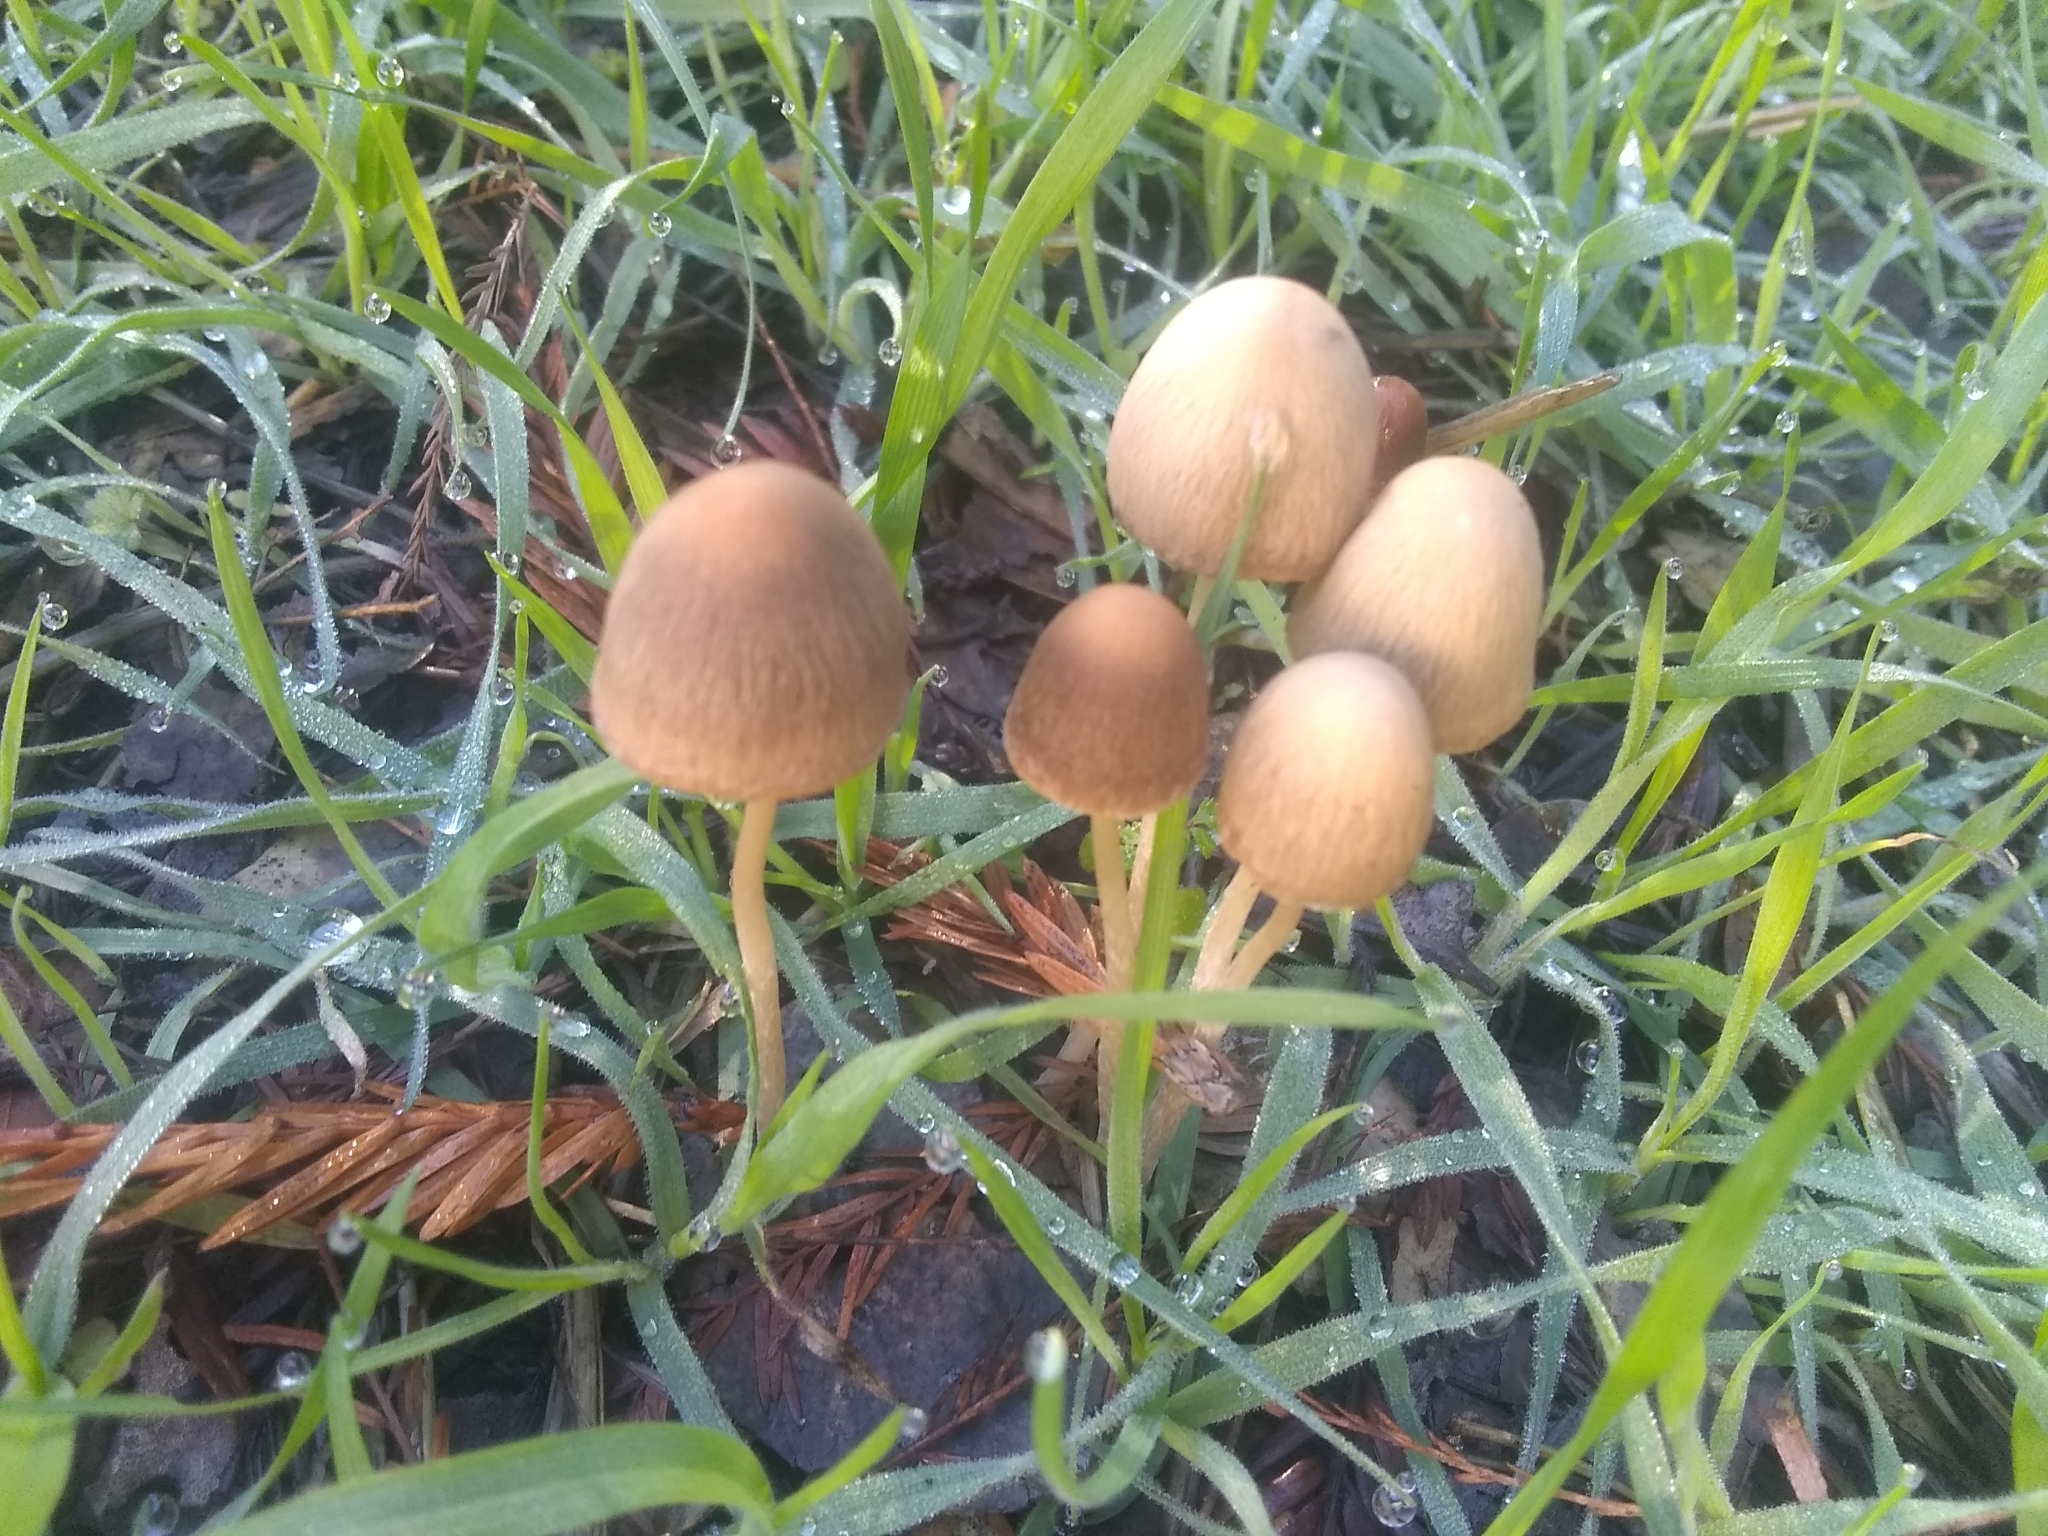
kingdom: Fungi
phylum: Basidiomycota
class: Agaricomycetes
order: Agaricales
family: Psathyrellaceae
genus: Psathyrella
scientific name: Psathyrella corrugis
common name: Red edge brittlestem
